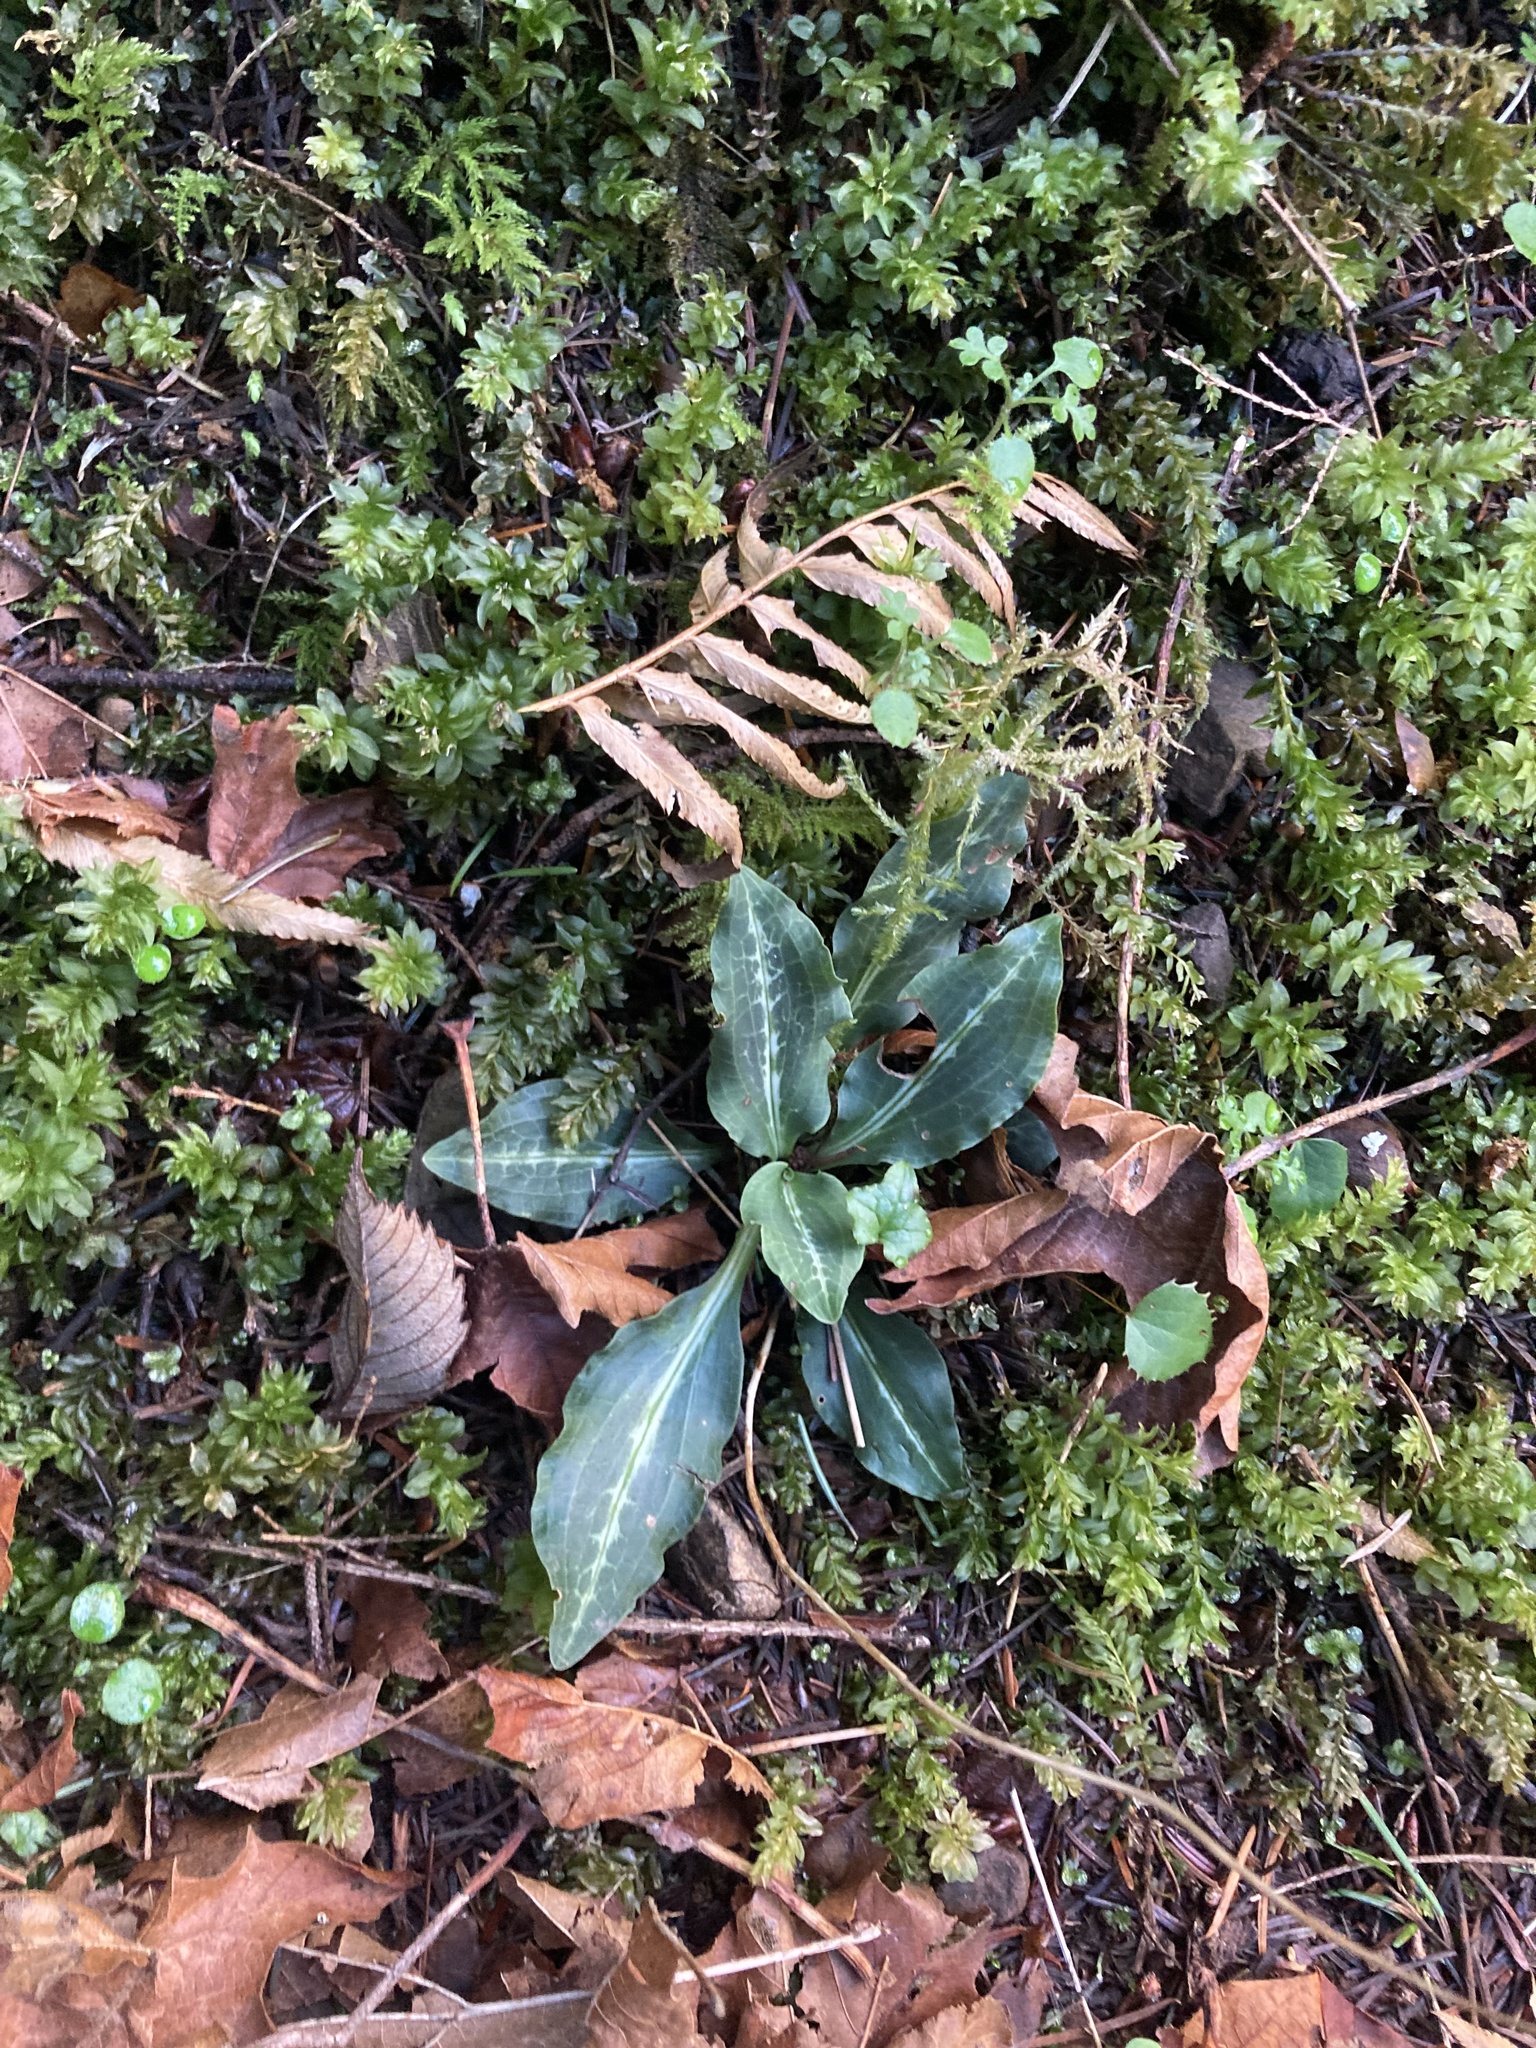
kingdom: Plantae
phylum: Tracheophyta
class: Liliopsida
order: Asparagales
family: Orchidaceae
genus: Goodyera
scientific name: Goodyera oblongifolia
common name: Giant rattlesnake-plantain
